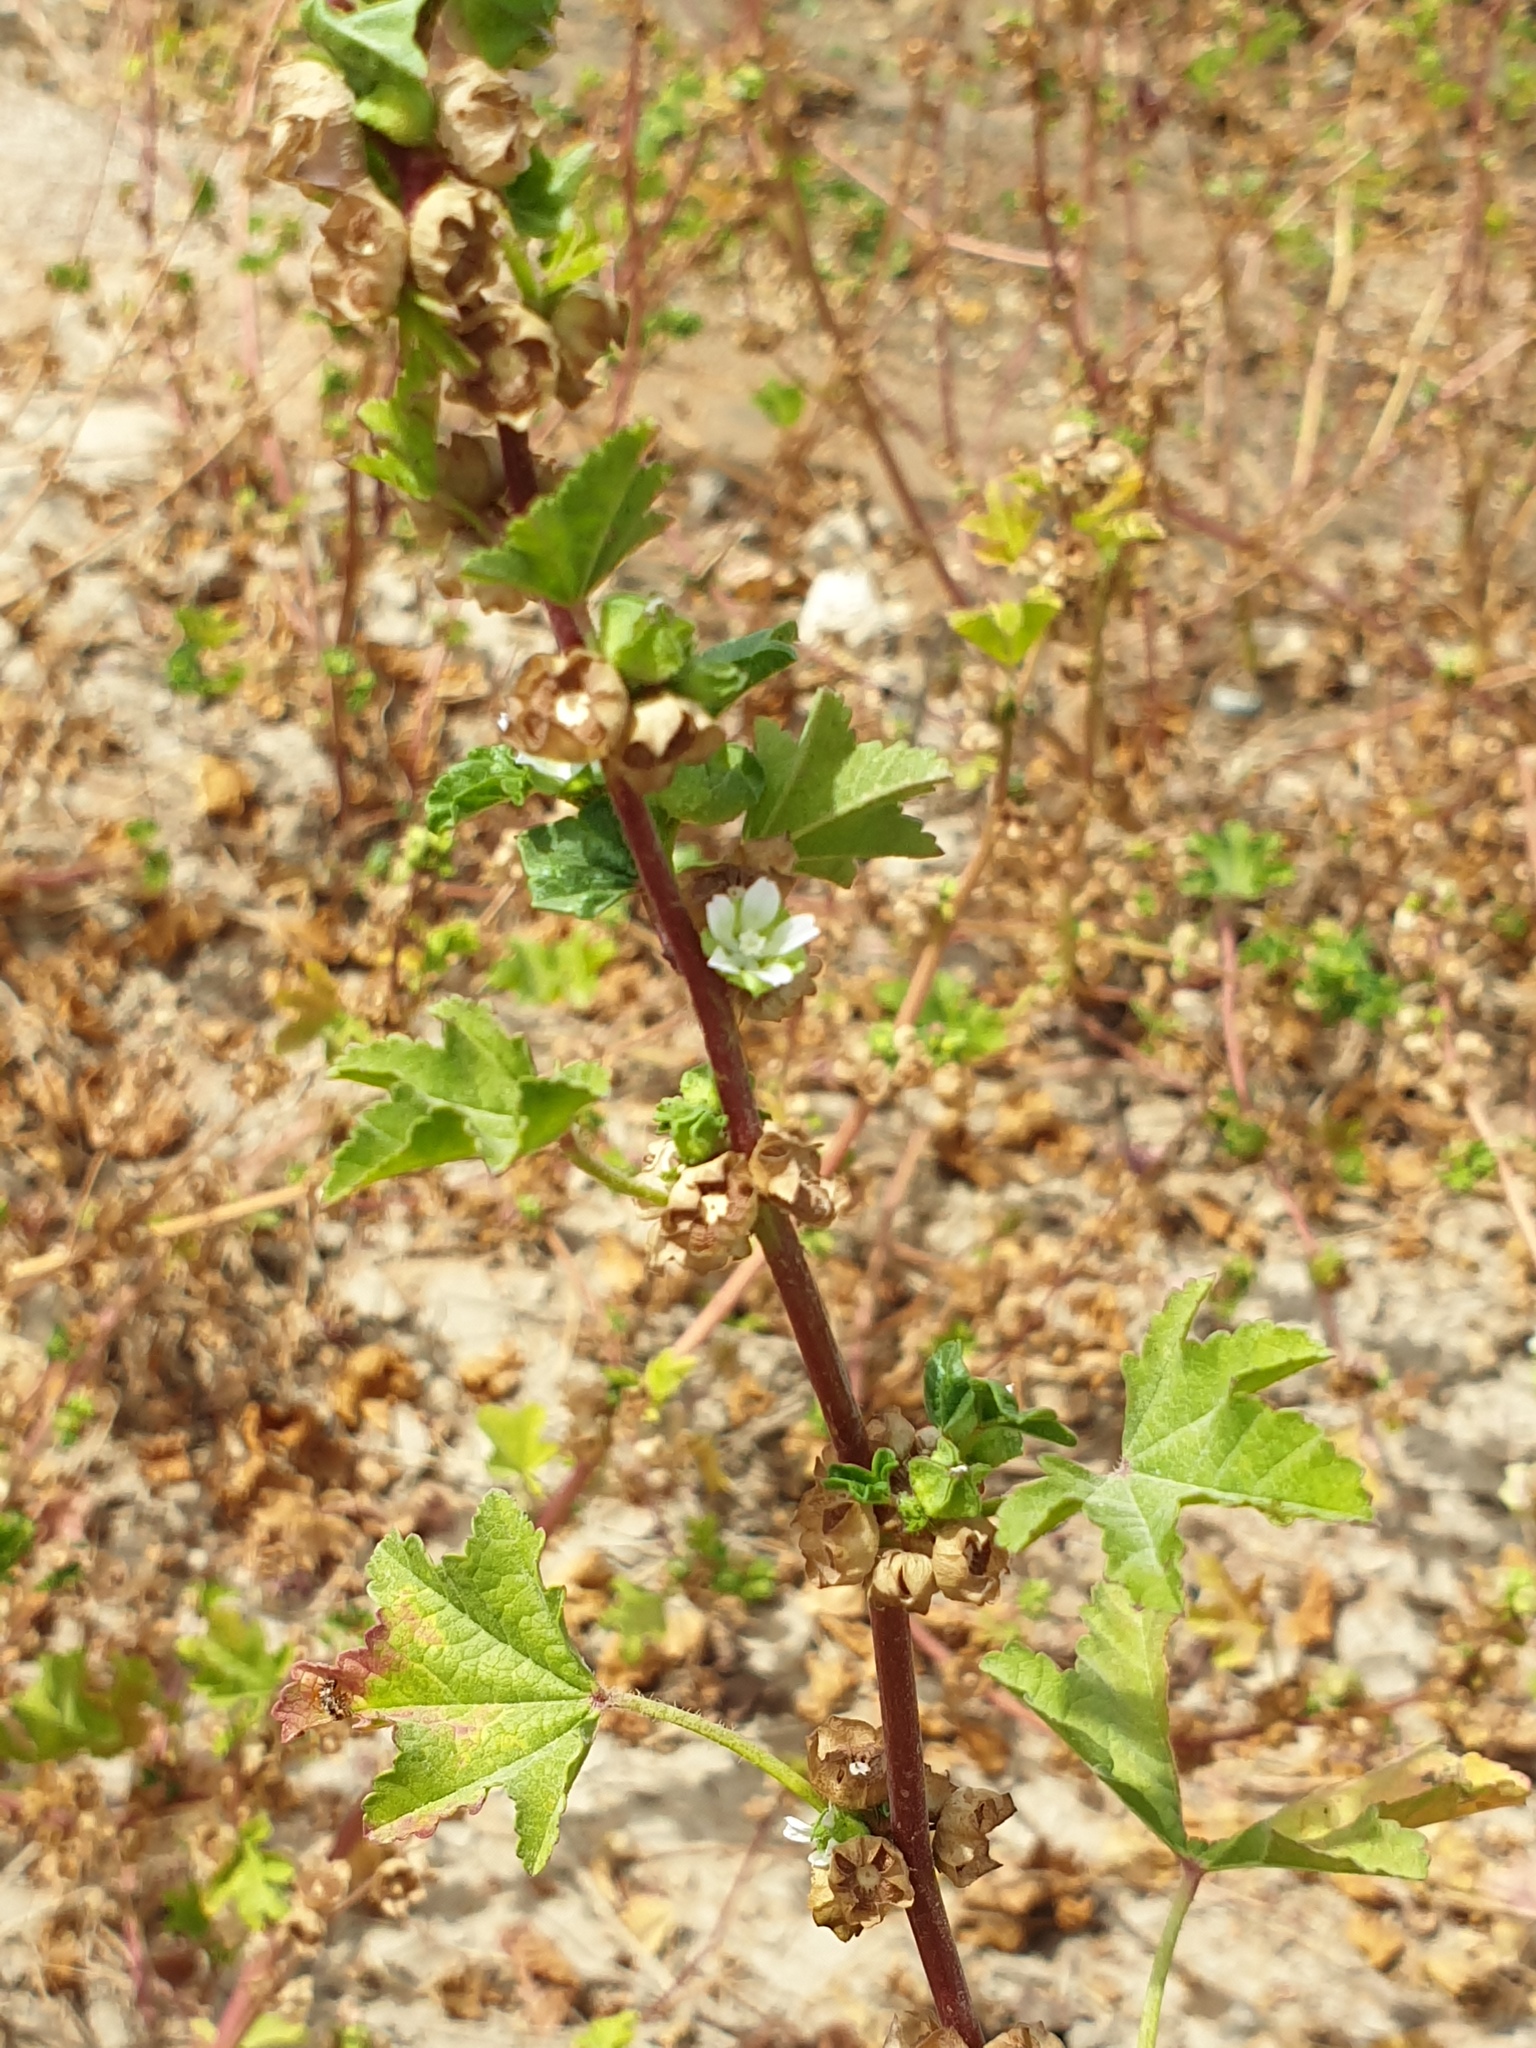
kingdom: Plantae
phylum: Tracheophyta
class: Magnoliopsida
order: Malvales
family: Malvaceae
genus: Malva
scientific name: Malva parviflora
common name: Least mallow
